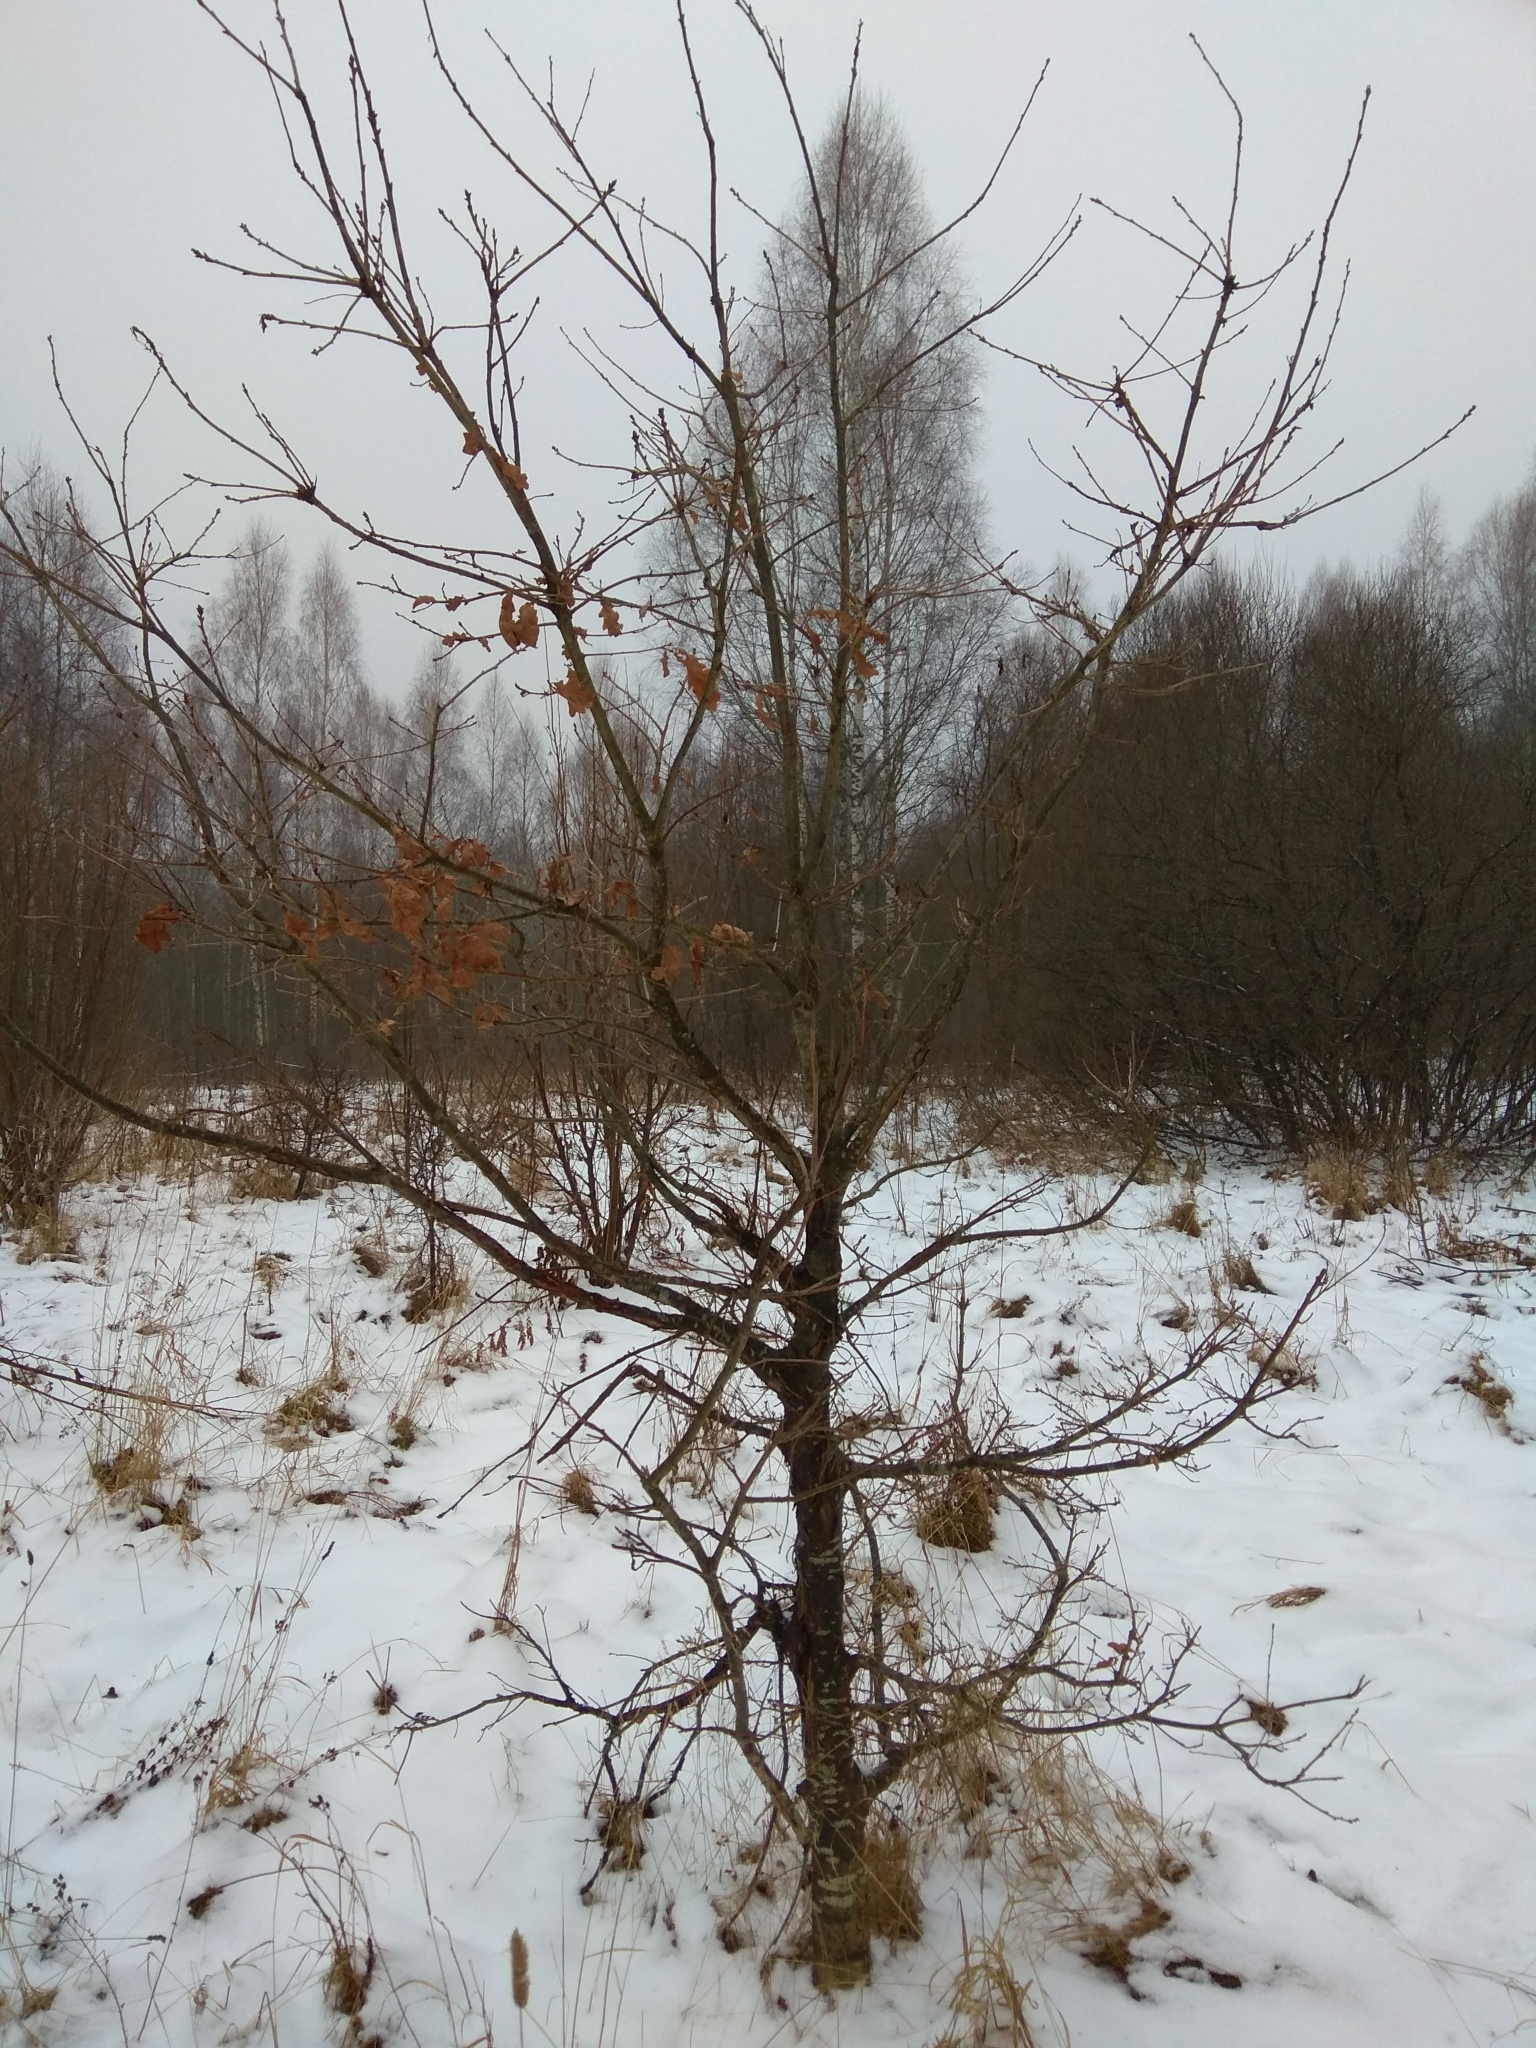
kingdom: Plantae
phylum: Tracheophyta
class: Magnoliopsida
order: Fagales
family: Fagaceae
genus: Quercus
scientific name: Quercus robur
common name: Pedunculate oak
